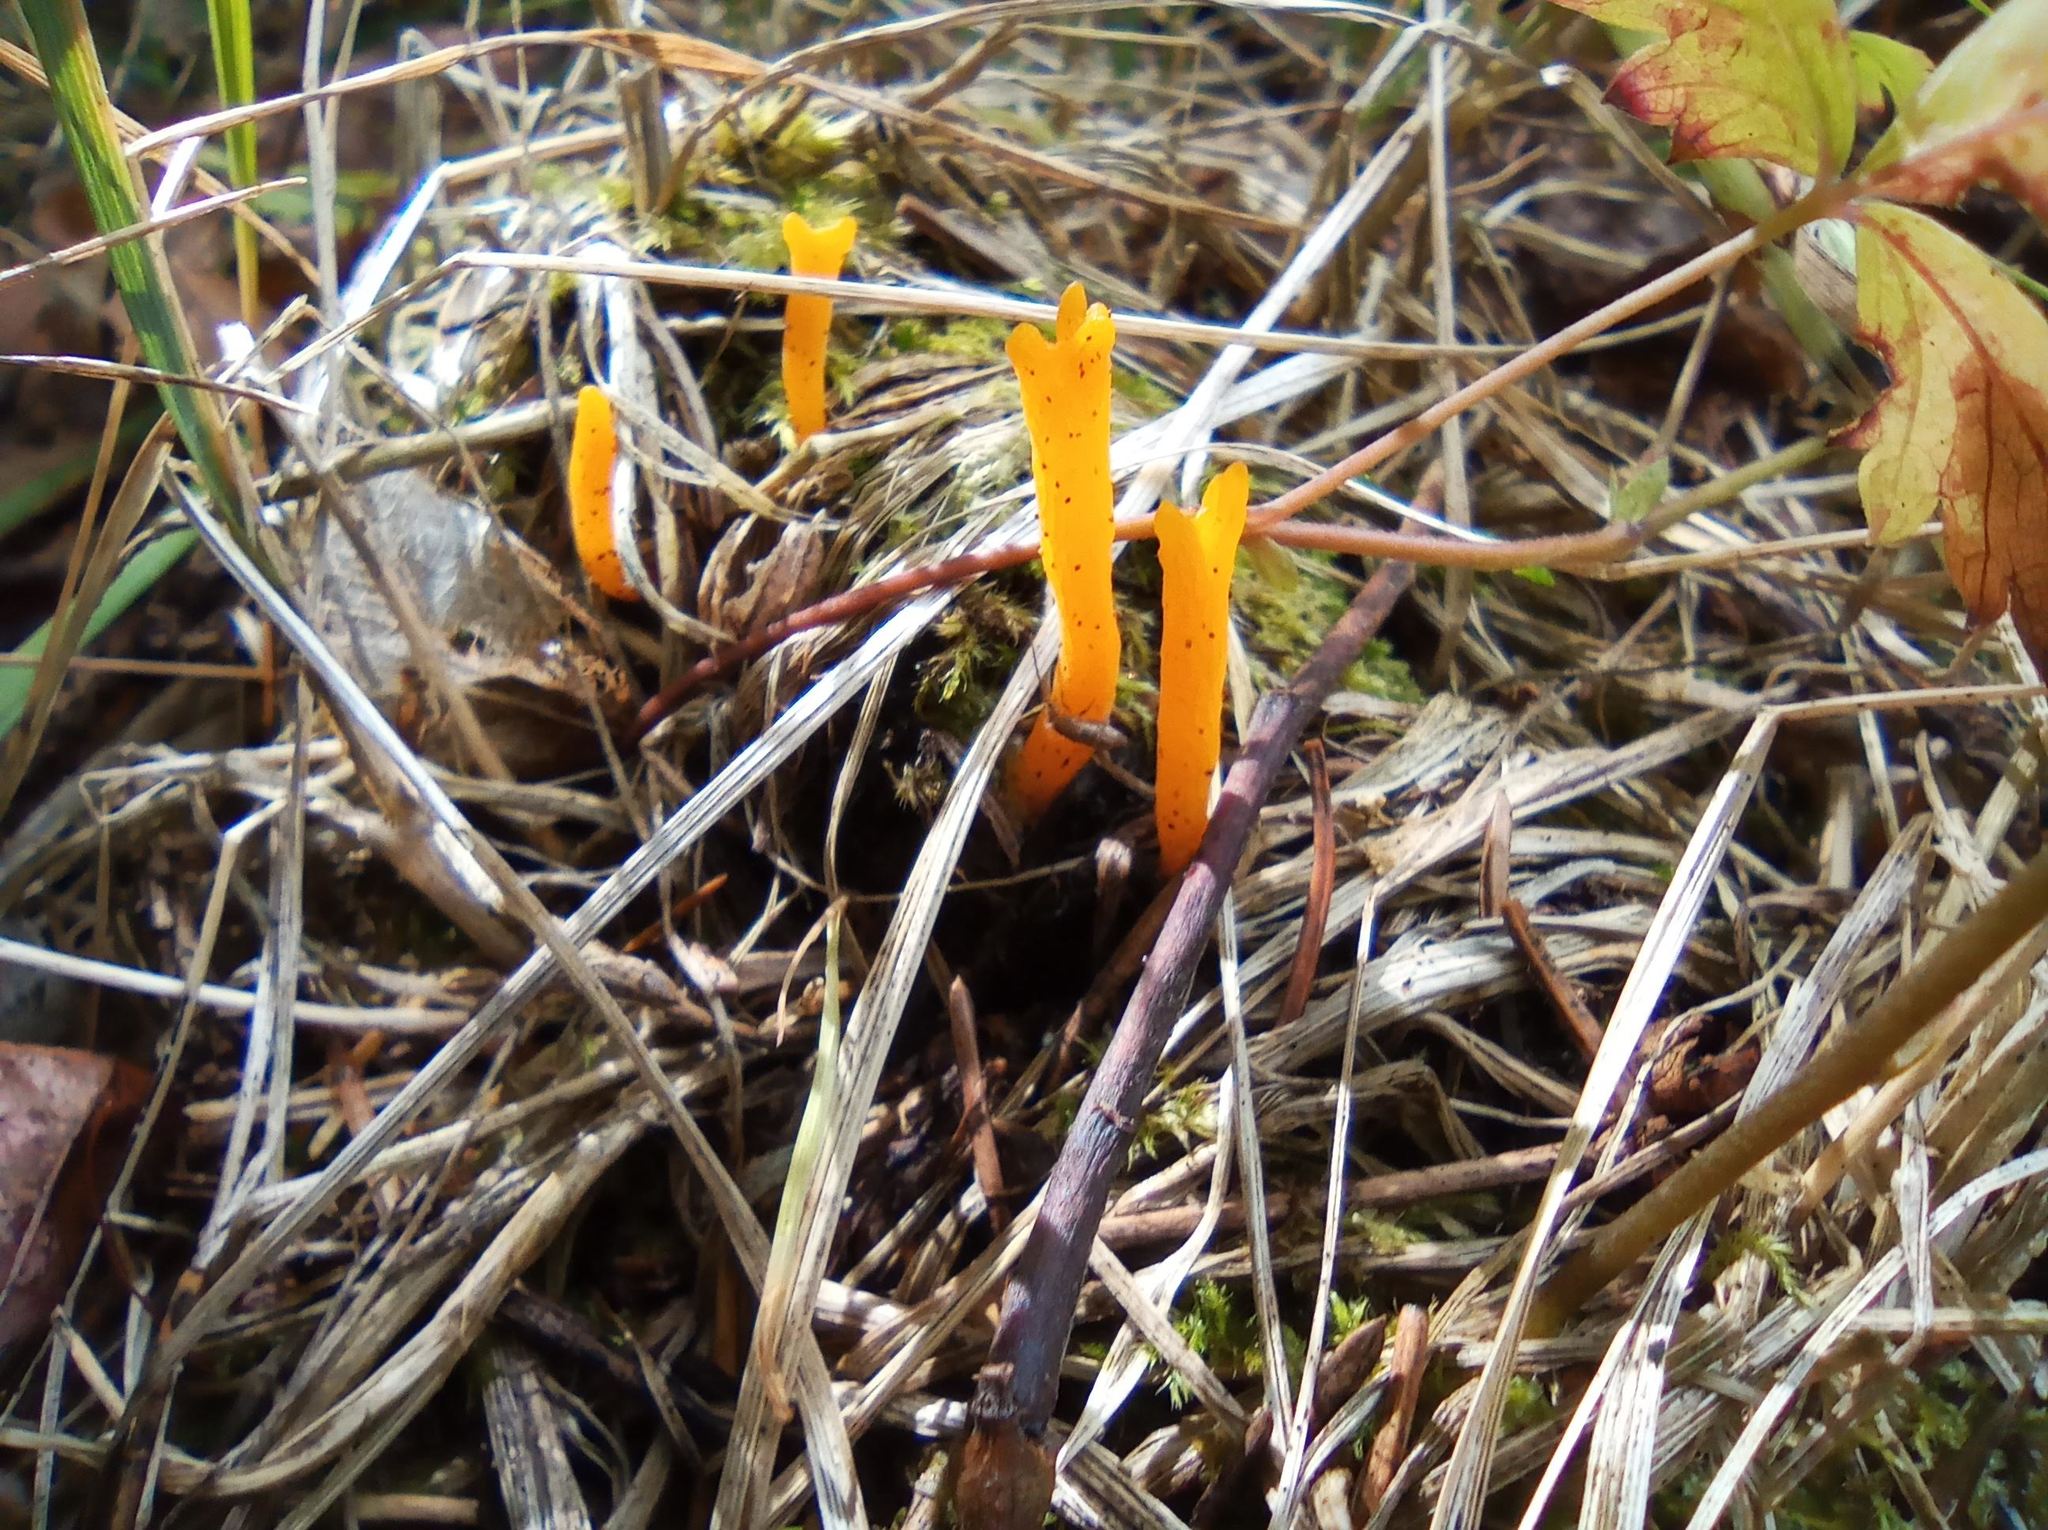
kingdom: Fungi
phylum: Basidiomycota
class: Dacrymycetes
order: Dacrymycetales
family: Dacrymycetaceae
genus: Calocera
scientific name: Calocera viscosa
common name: Yellow stagshorn
